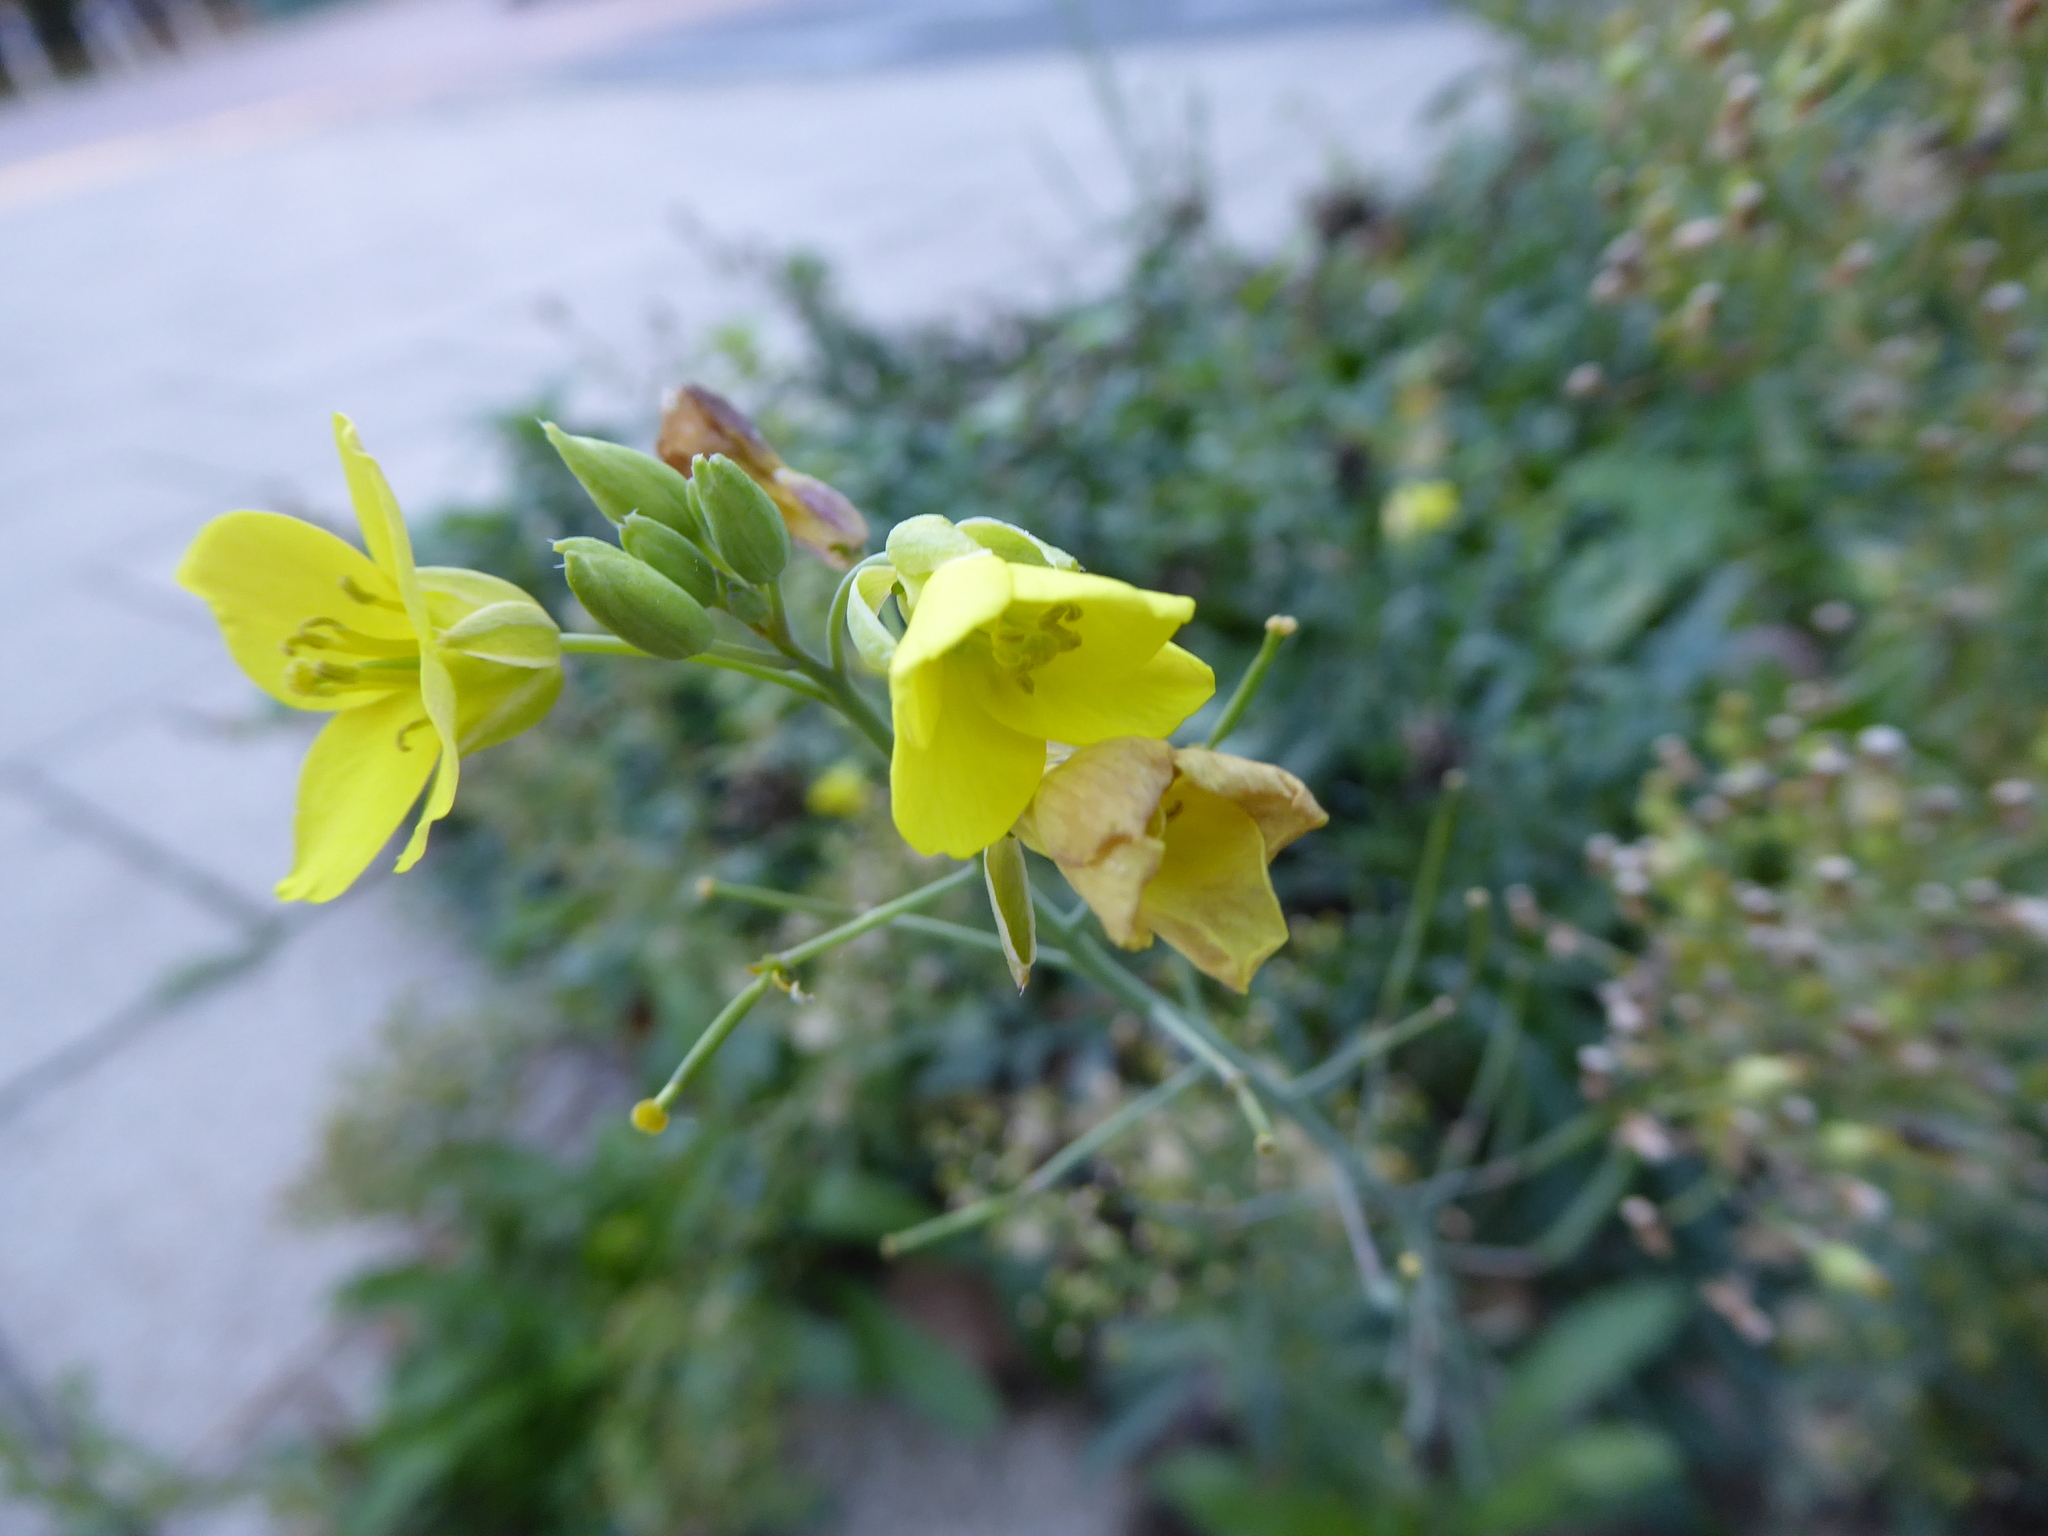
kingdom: Plantae
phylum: Tracheophyta
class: Magnoliopsida
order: Brassicales
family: Brassicaceae
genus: Diplotaxis
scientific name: Diplotaxis tenuifolia
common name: Perennial wall-rocket
